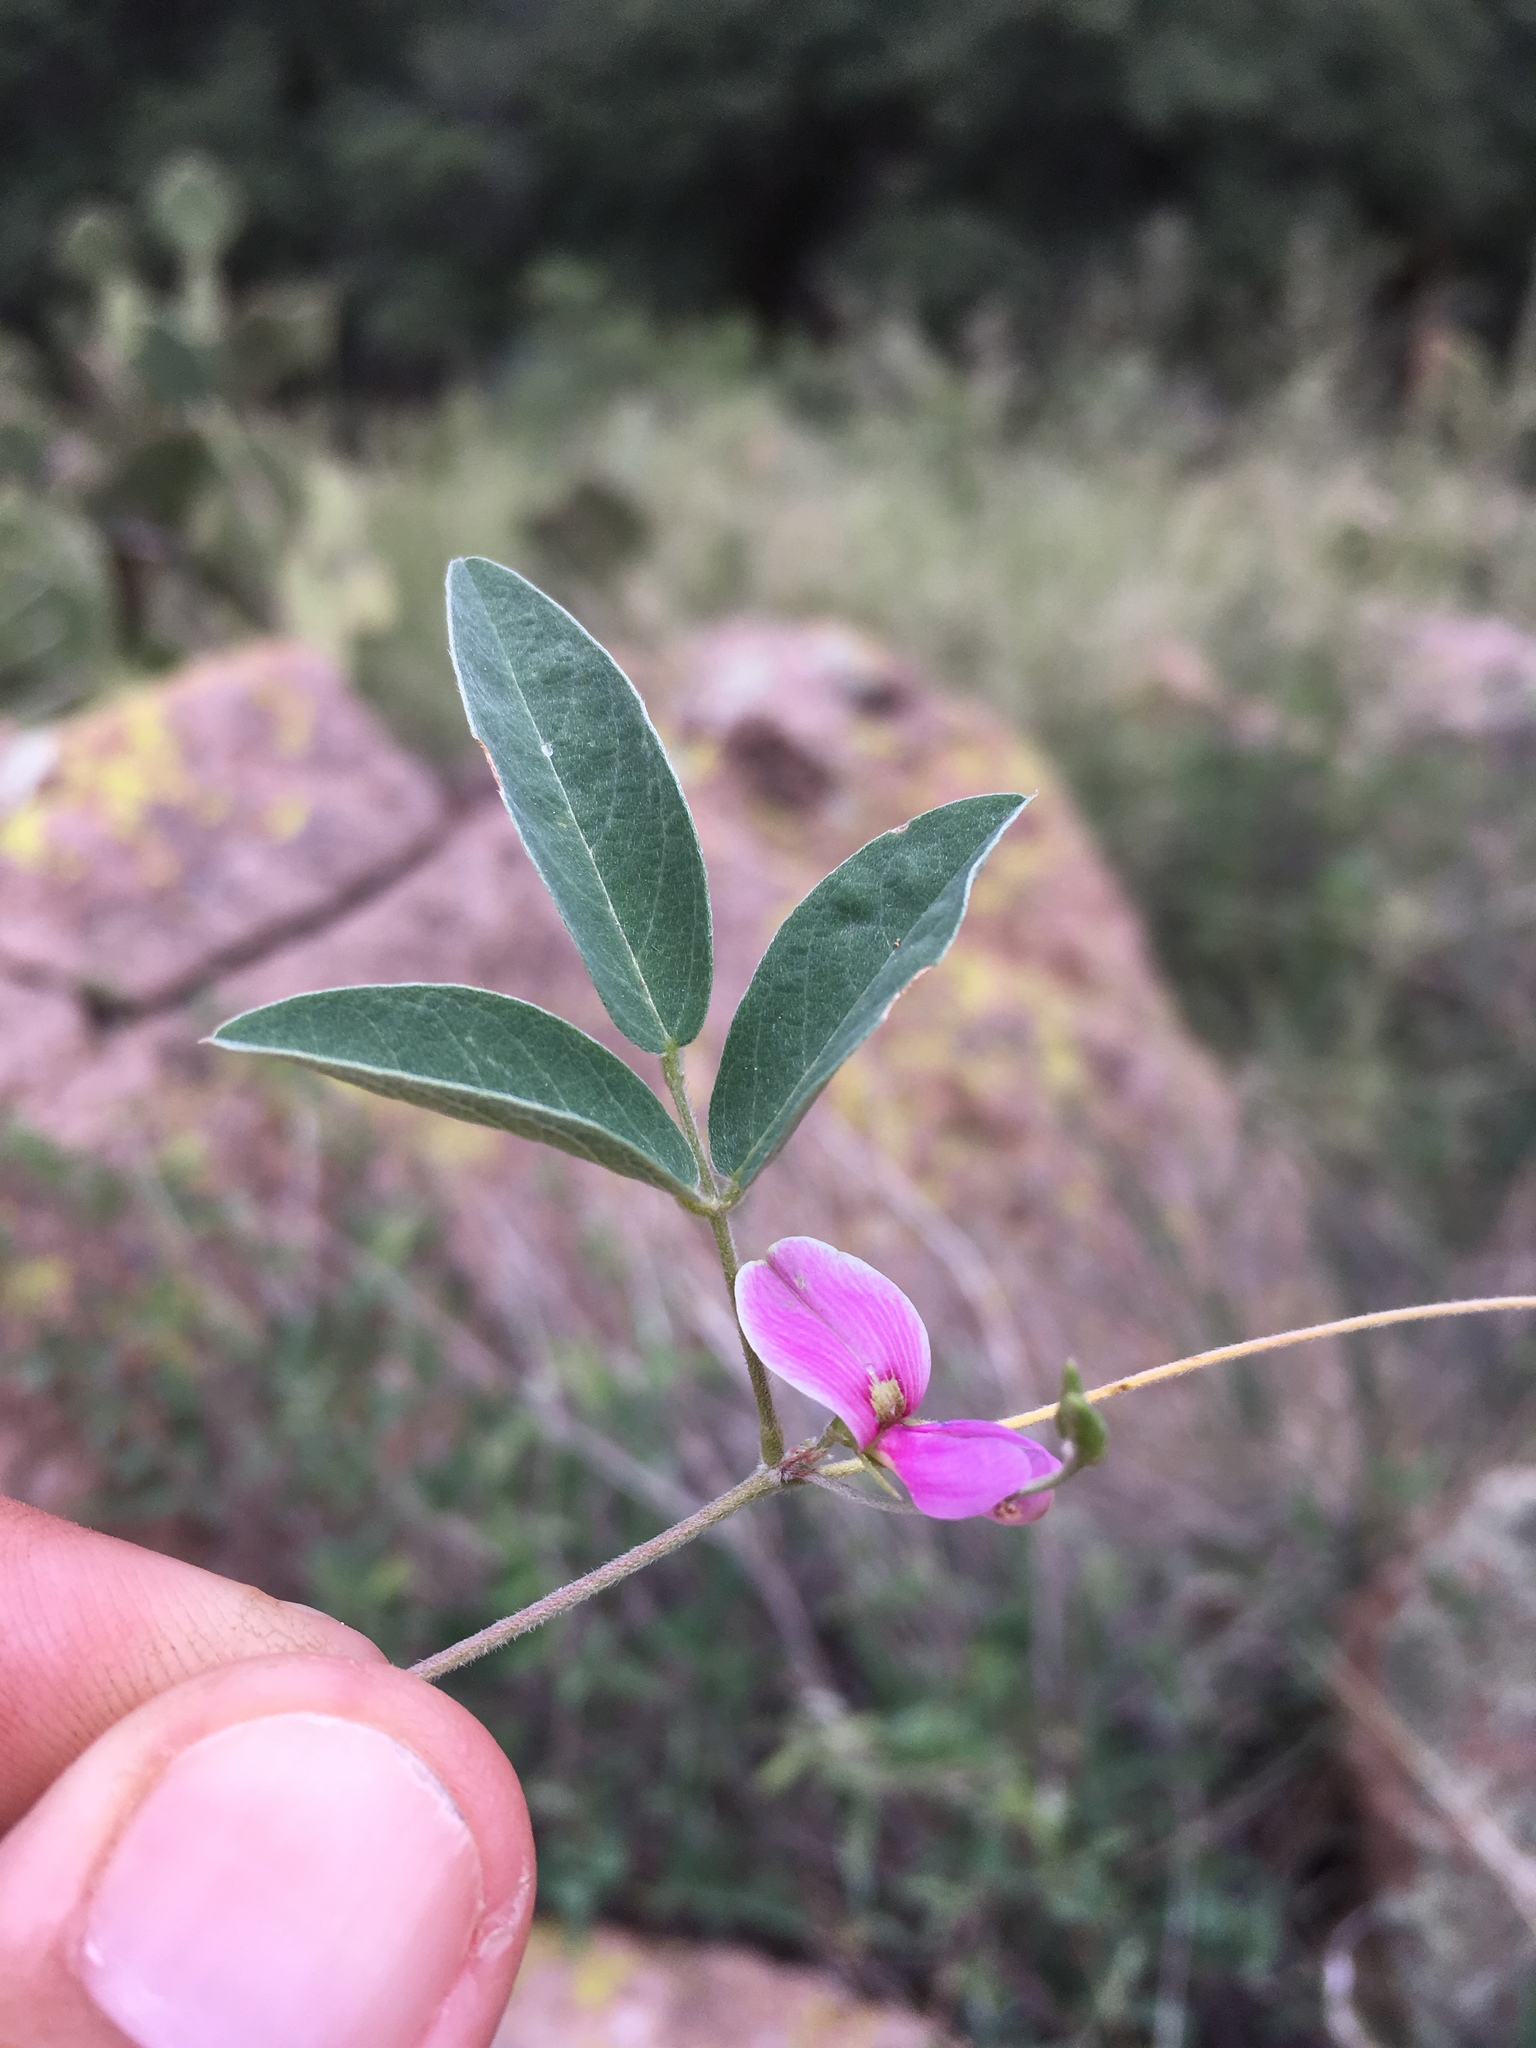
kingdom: Plantae
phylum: Tracheophyta
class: Magnoliopsida
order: Fabales
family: Fabaceae
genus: Galactia
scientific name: Galactia wrightii
